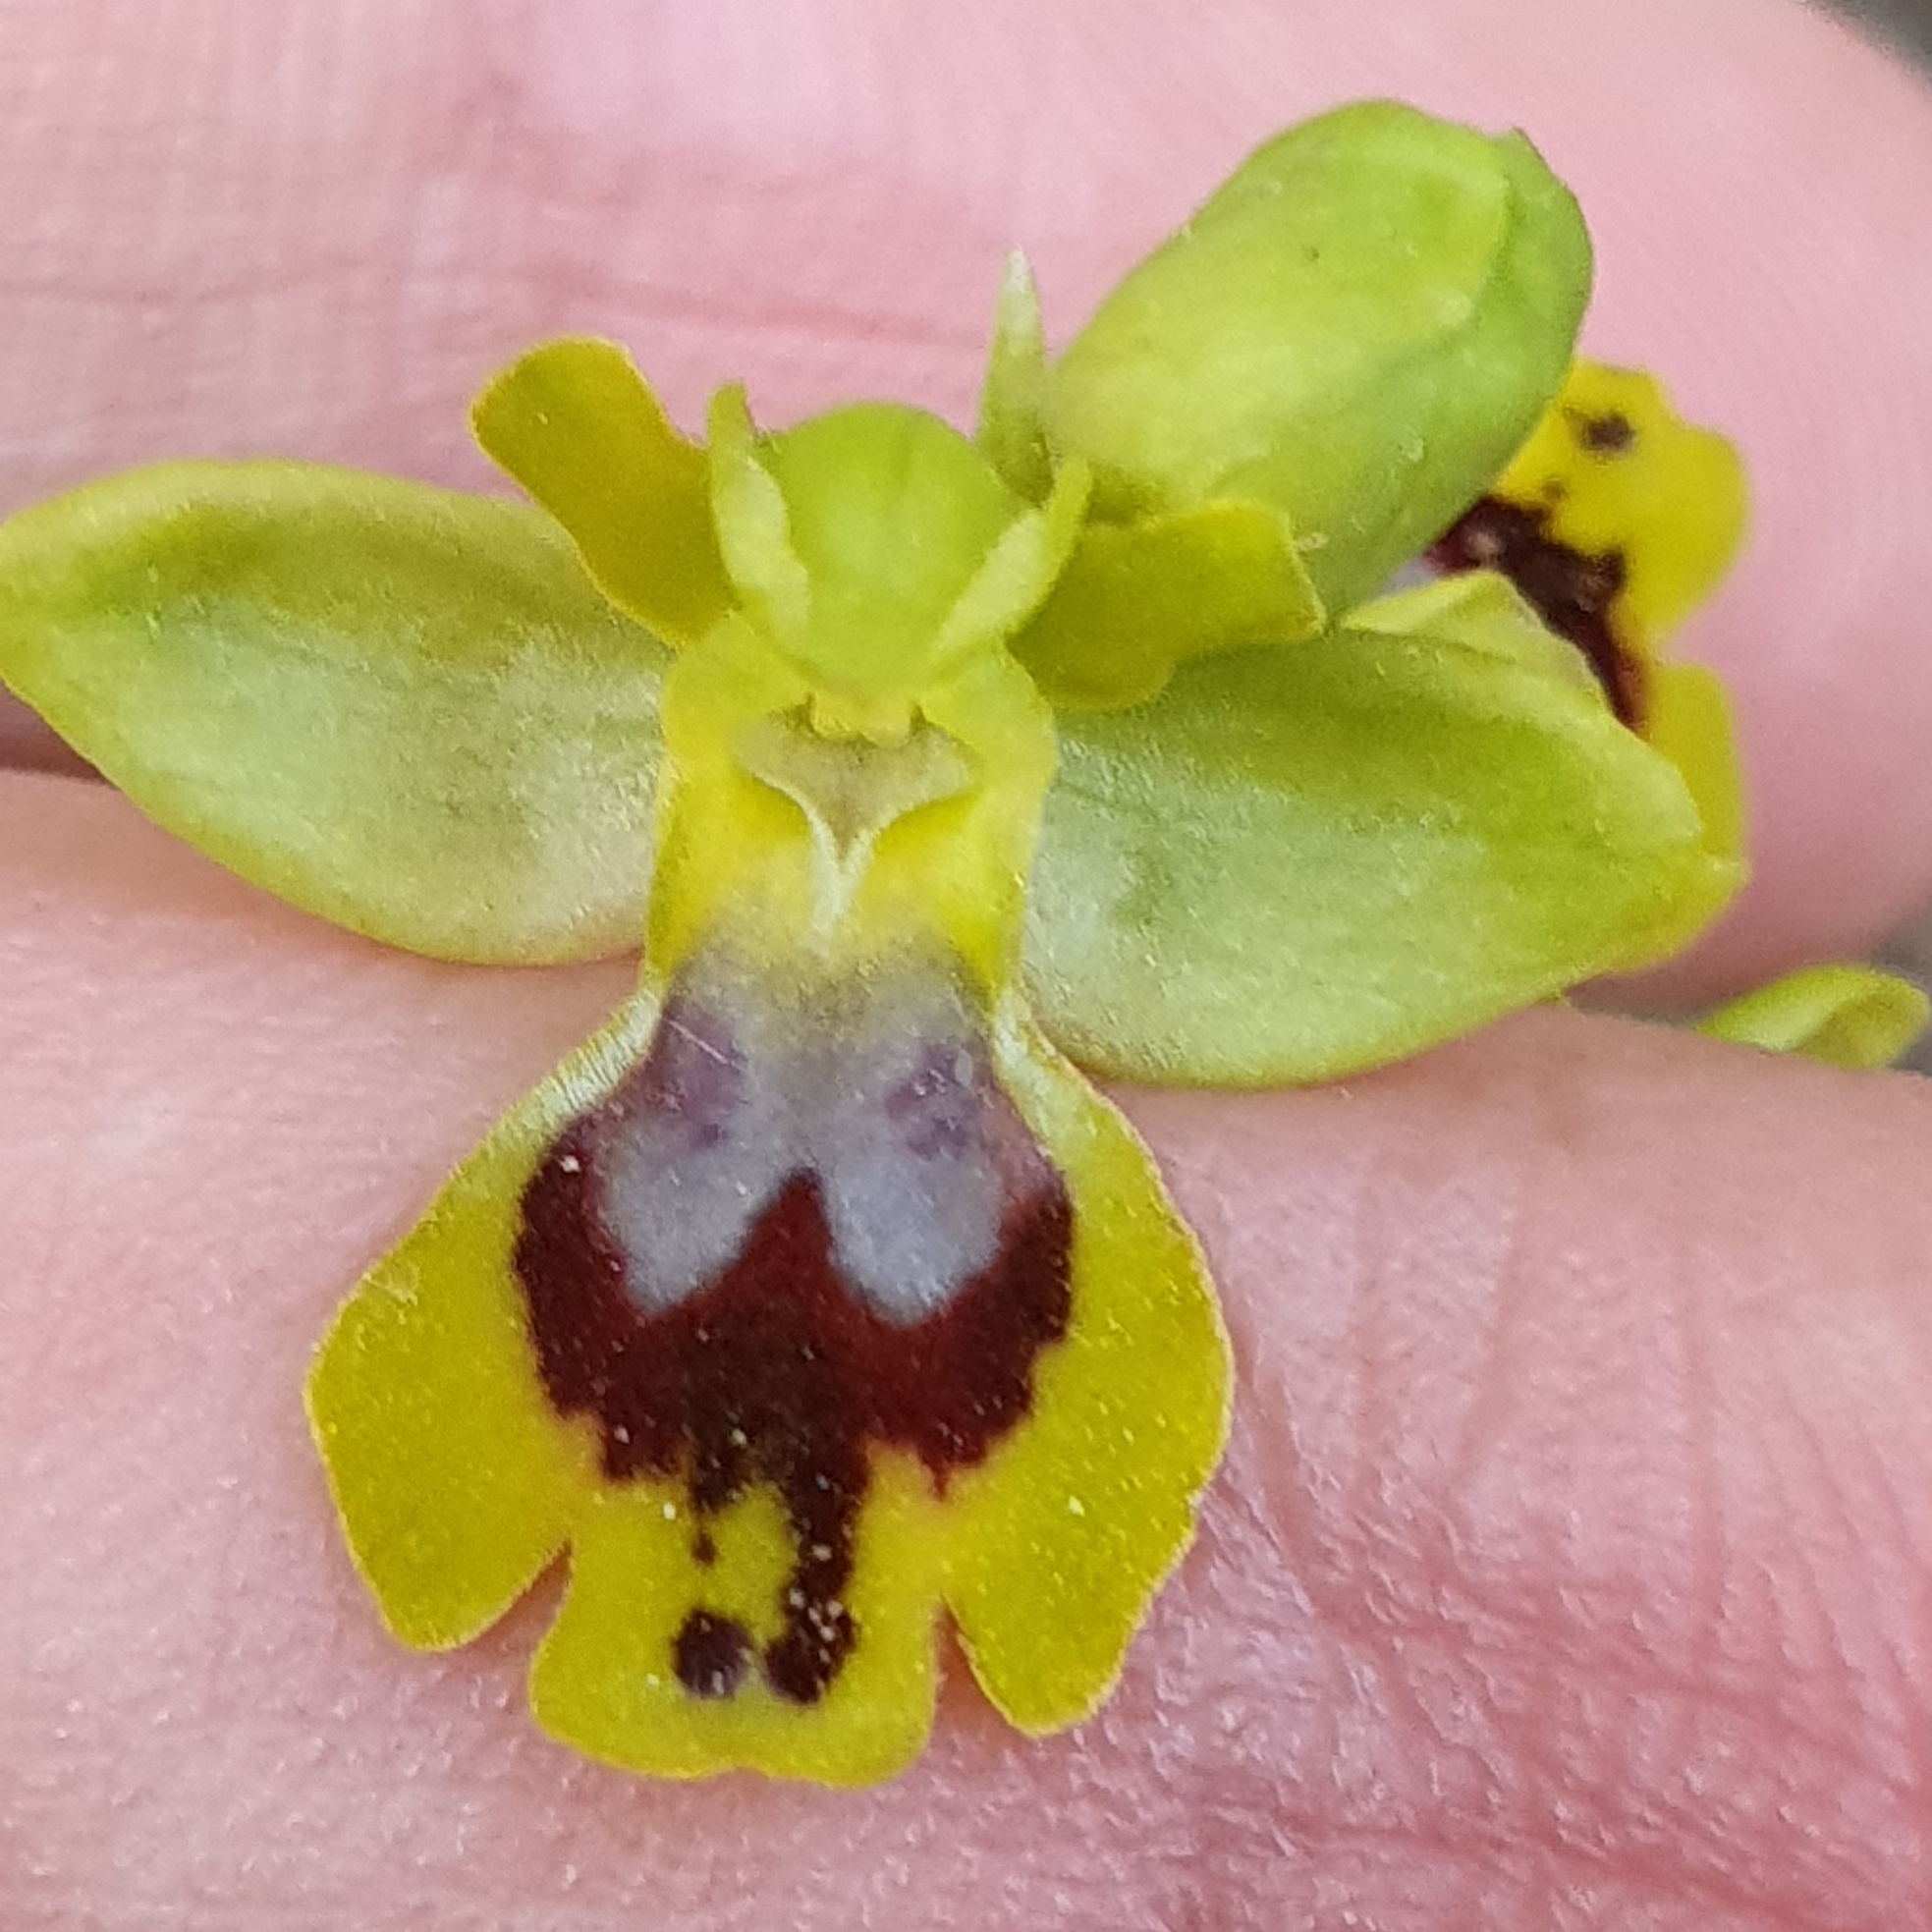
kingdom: Plantae
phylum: Tracheophyta
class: Liliopsida
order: Asparagales
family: Orchidaceae
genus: Ophrys
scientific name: Ophrys battandieri
